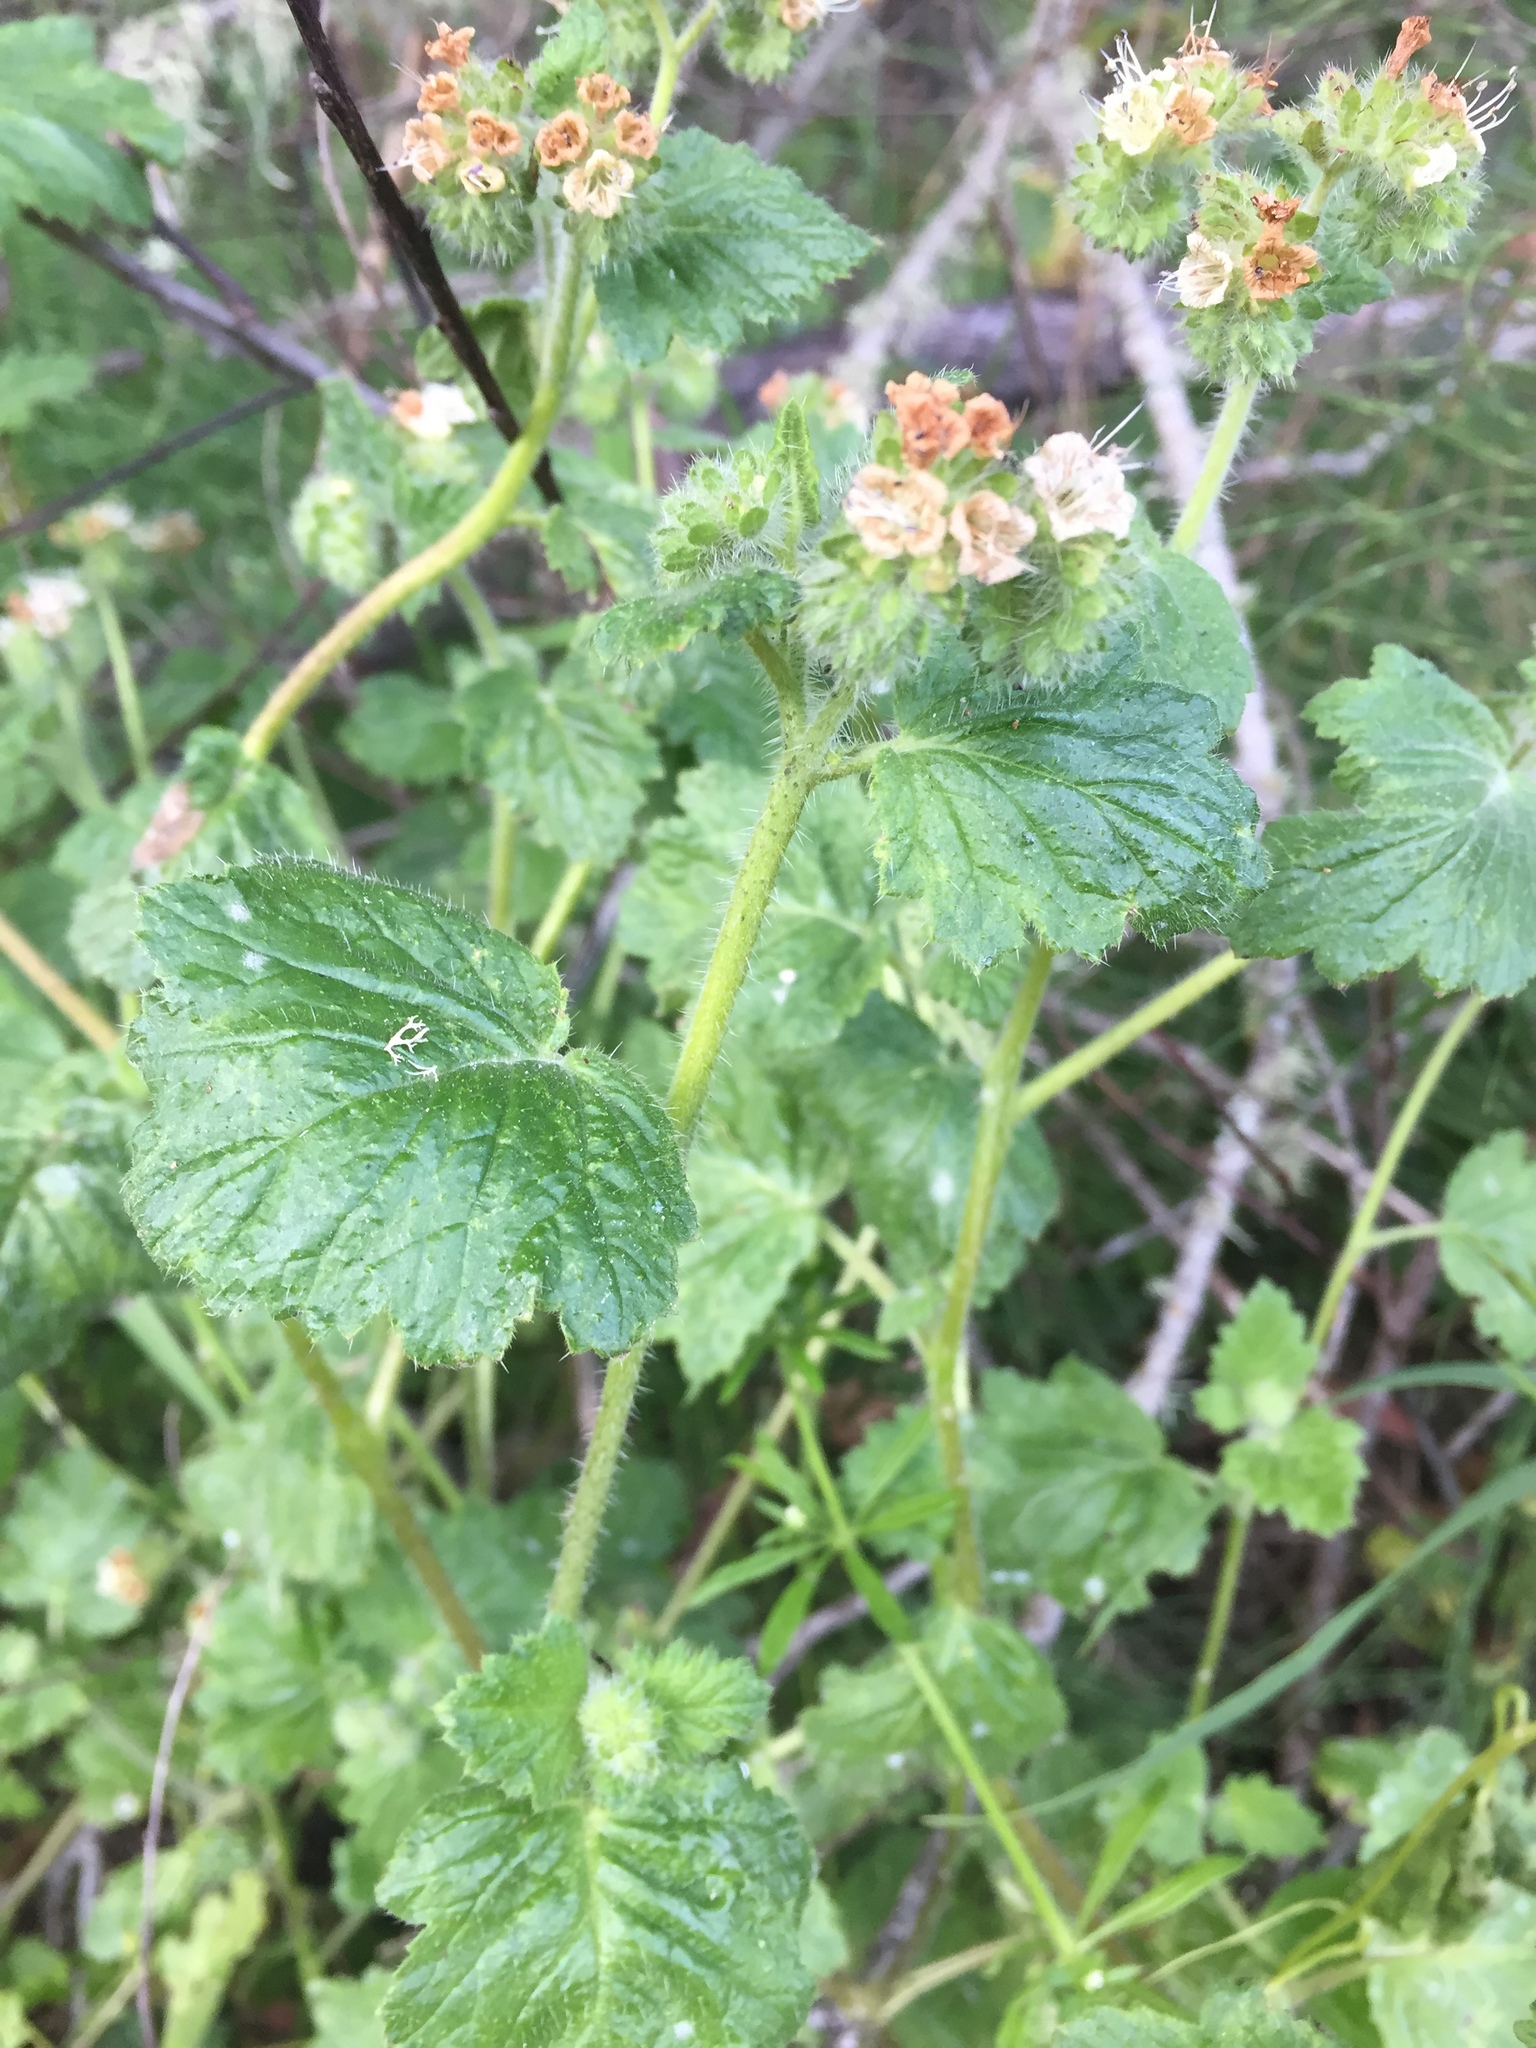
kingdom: Plantae
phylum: Tracheophyta
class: Magnoliopsida
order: Boraginales
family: Hydrophyllaceae
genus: Phacelia
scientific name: Phacelia malvifolia
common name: Mallow-leaf phacelia
